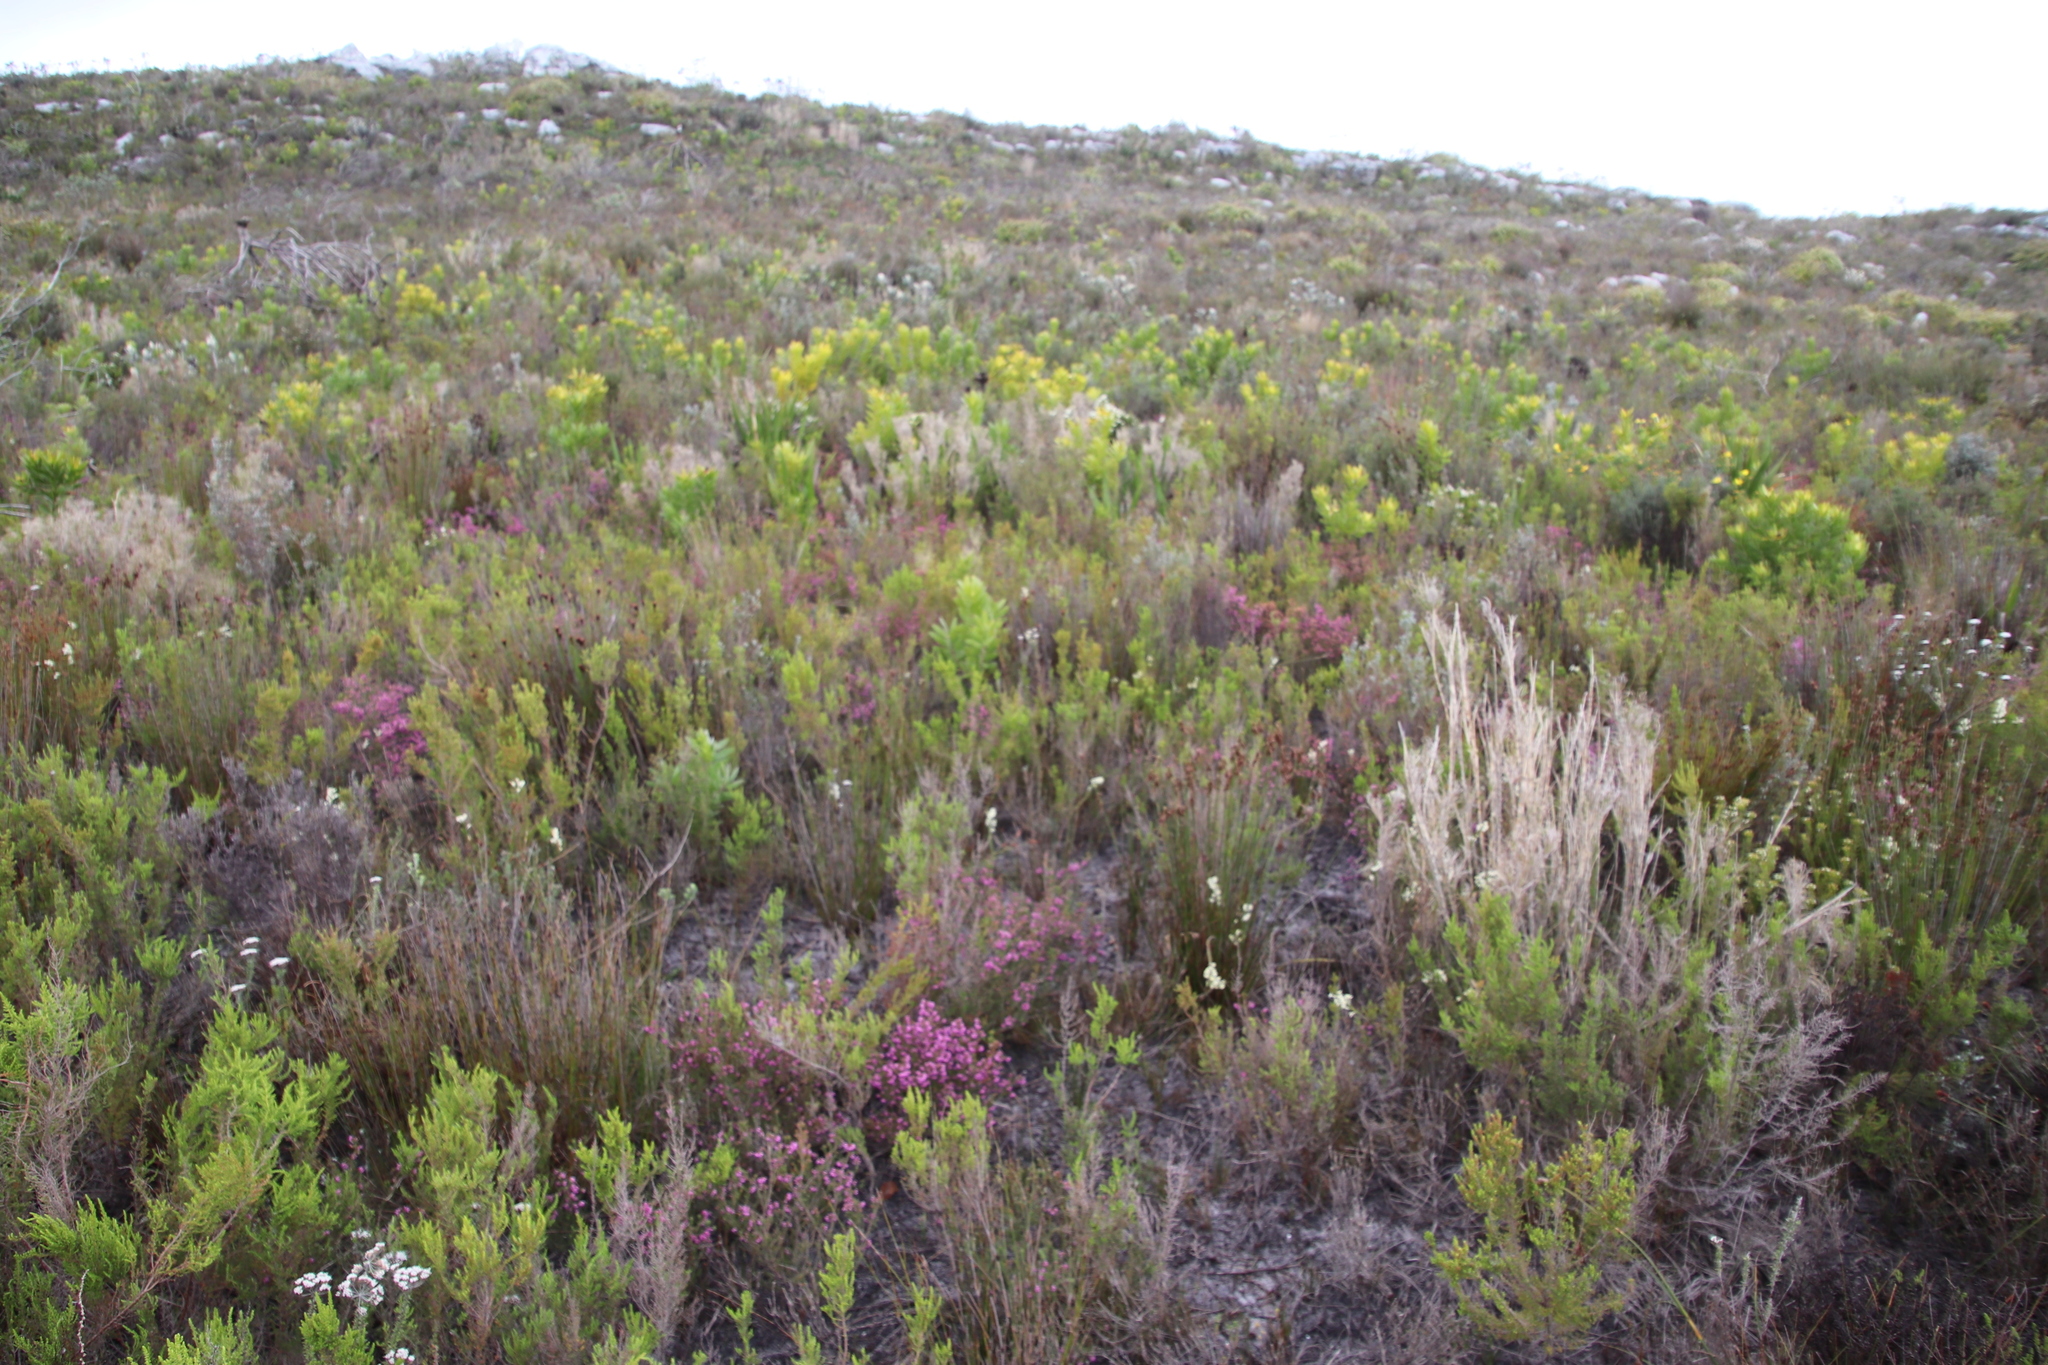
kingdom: Plantae
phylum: Tracheophyta
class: Magnoliopsida
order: Ericales
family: Ericaceae
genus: Erica
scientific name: Erica glabella
